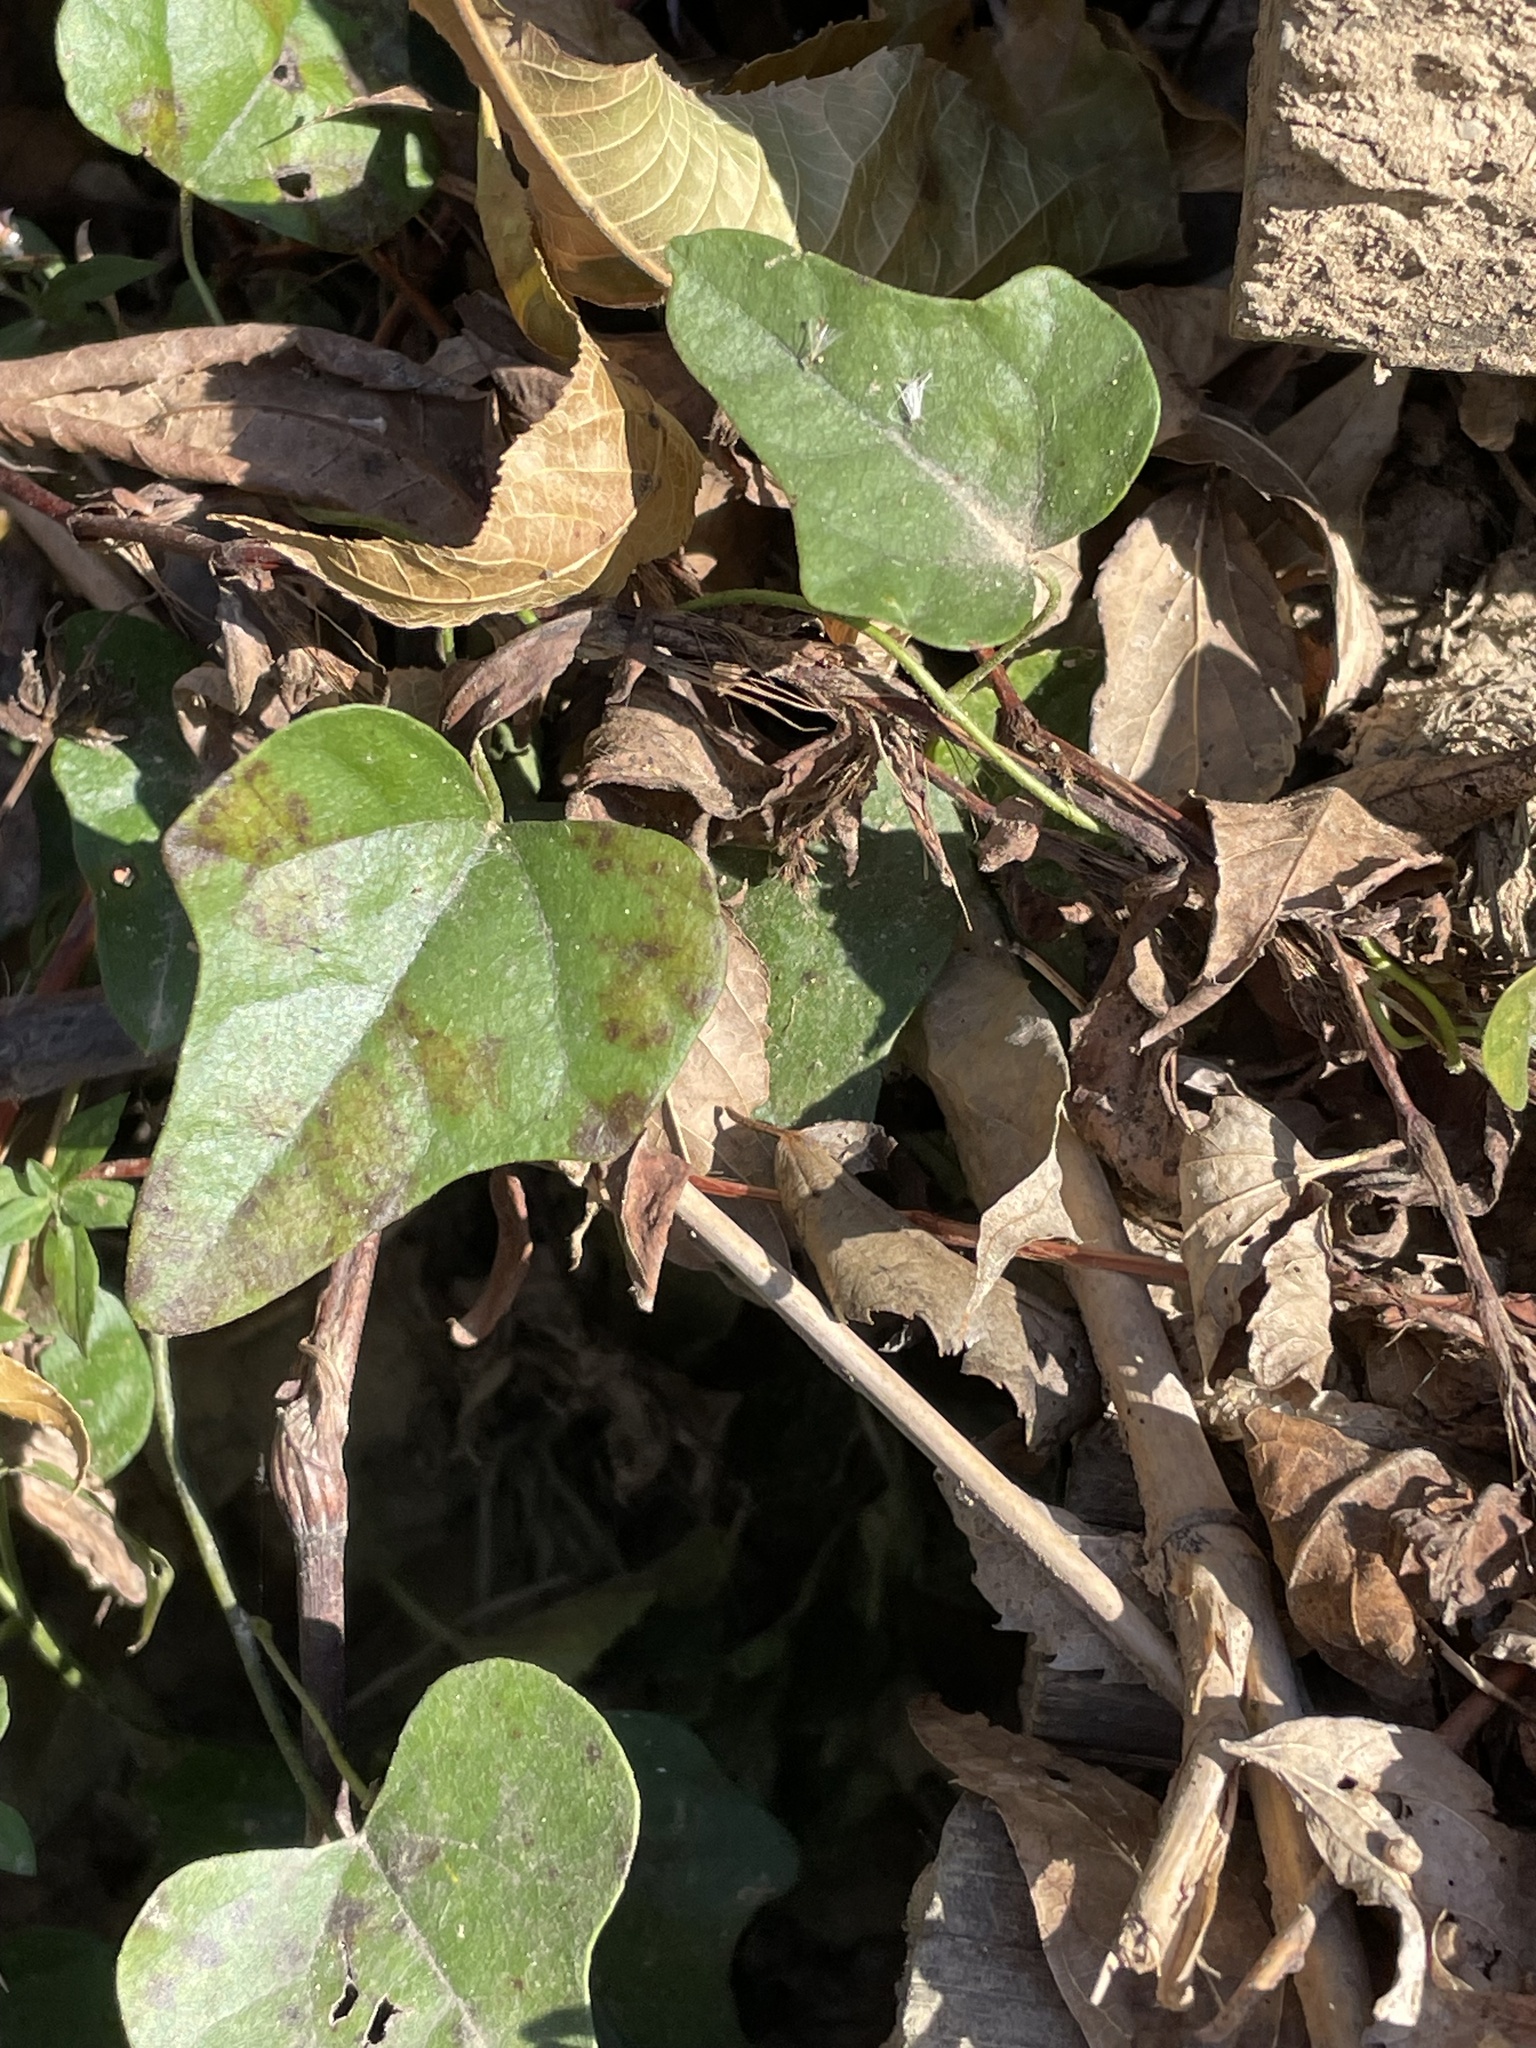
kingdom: Plantae
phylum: Tracheophyta
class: Magnoliopsida
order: Ranunculales
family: Menispermaceae
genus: Cocculus
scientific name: Cocculus carolinus
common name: Carolina moonseed
